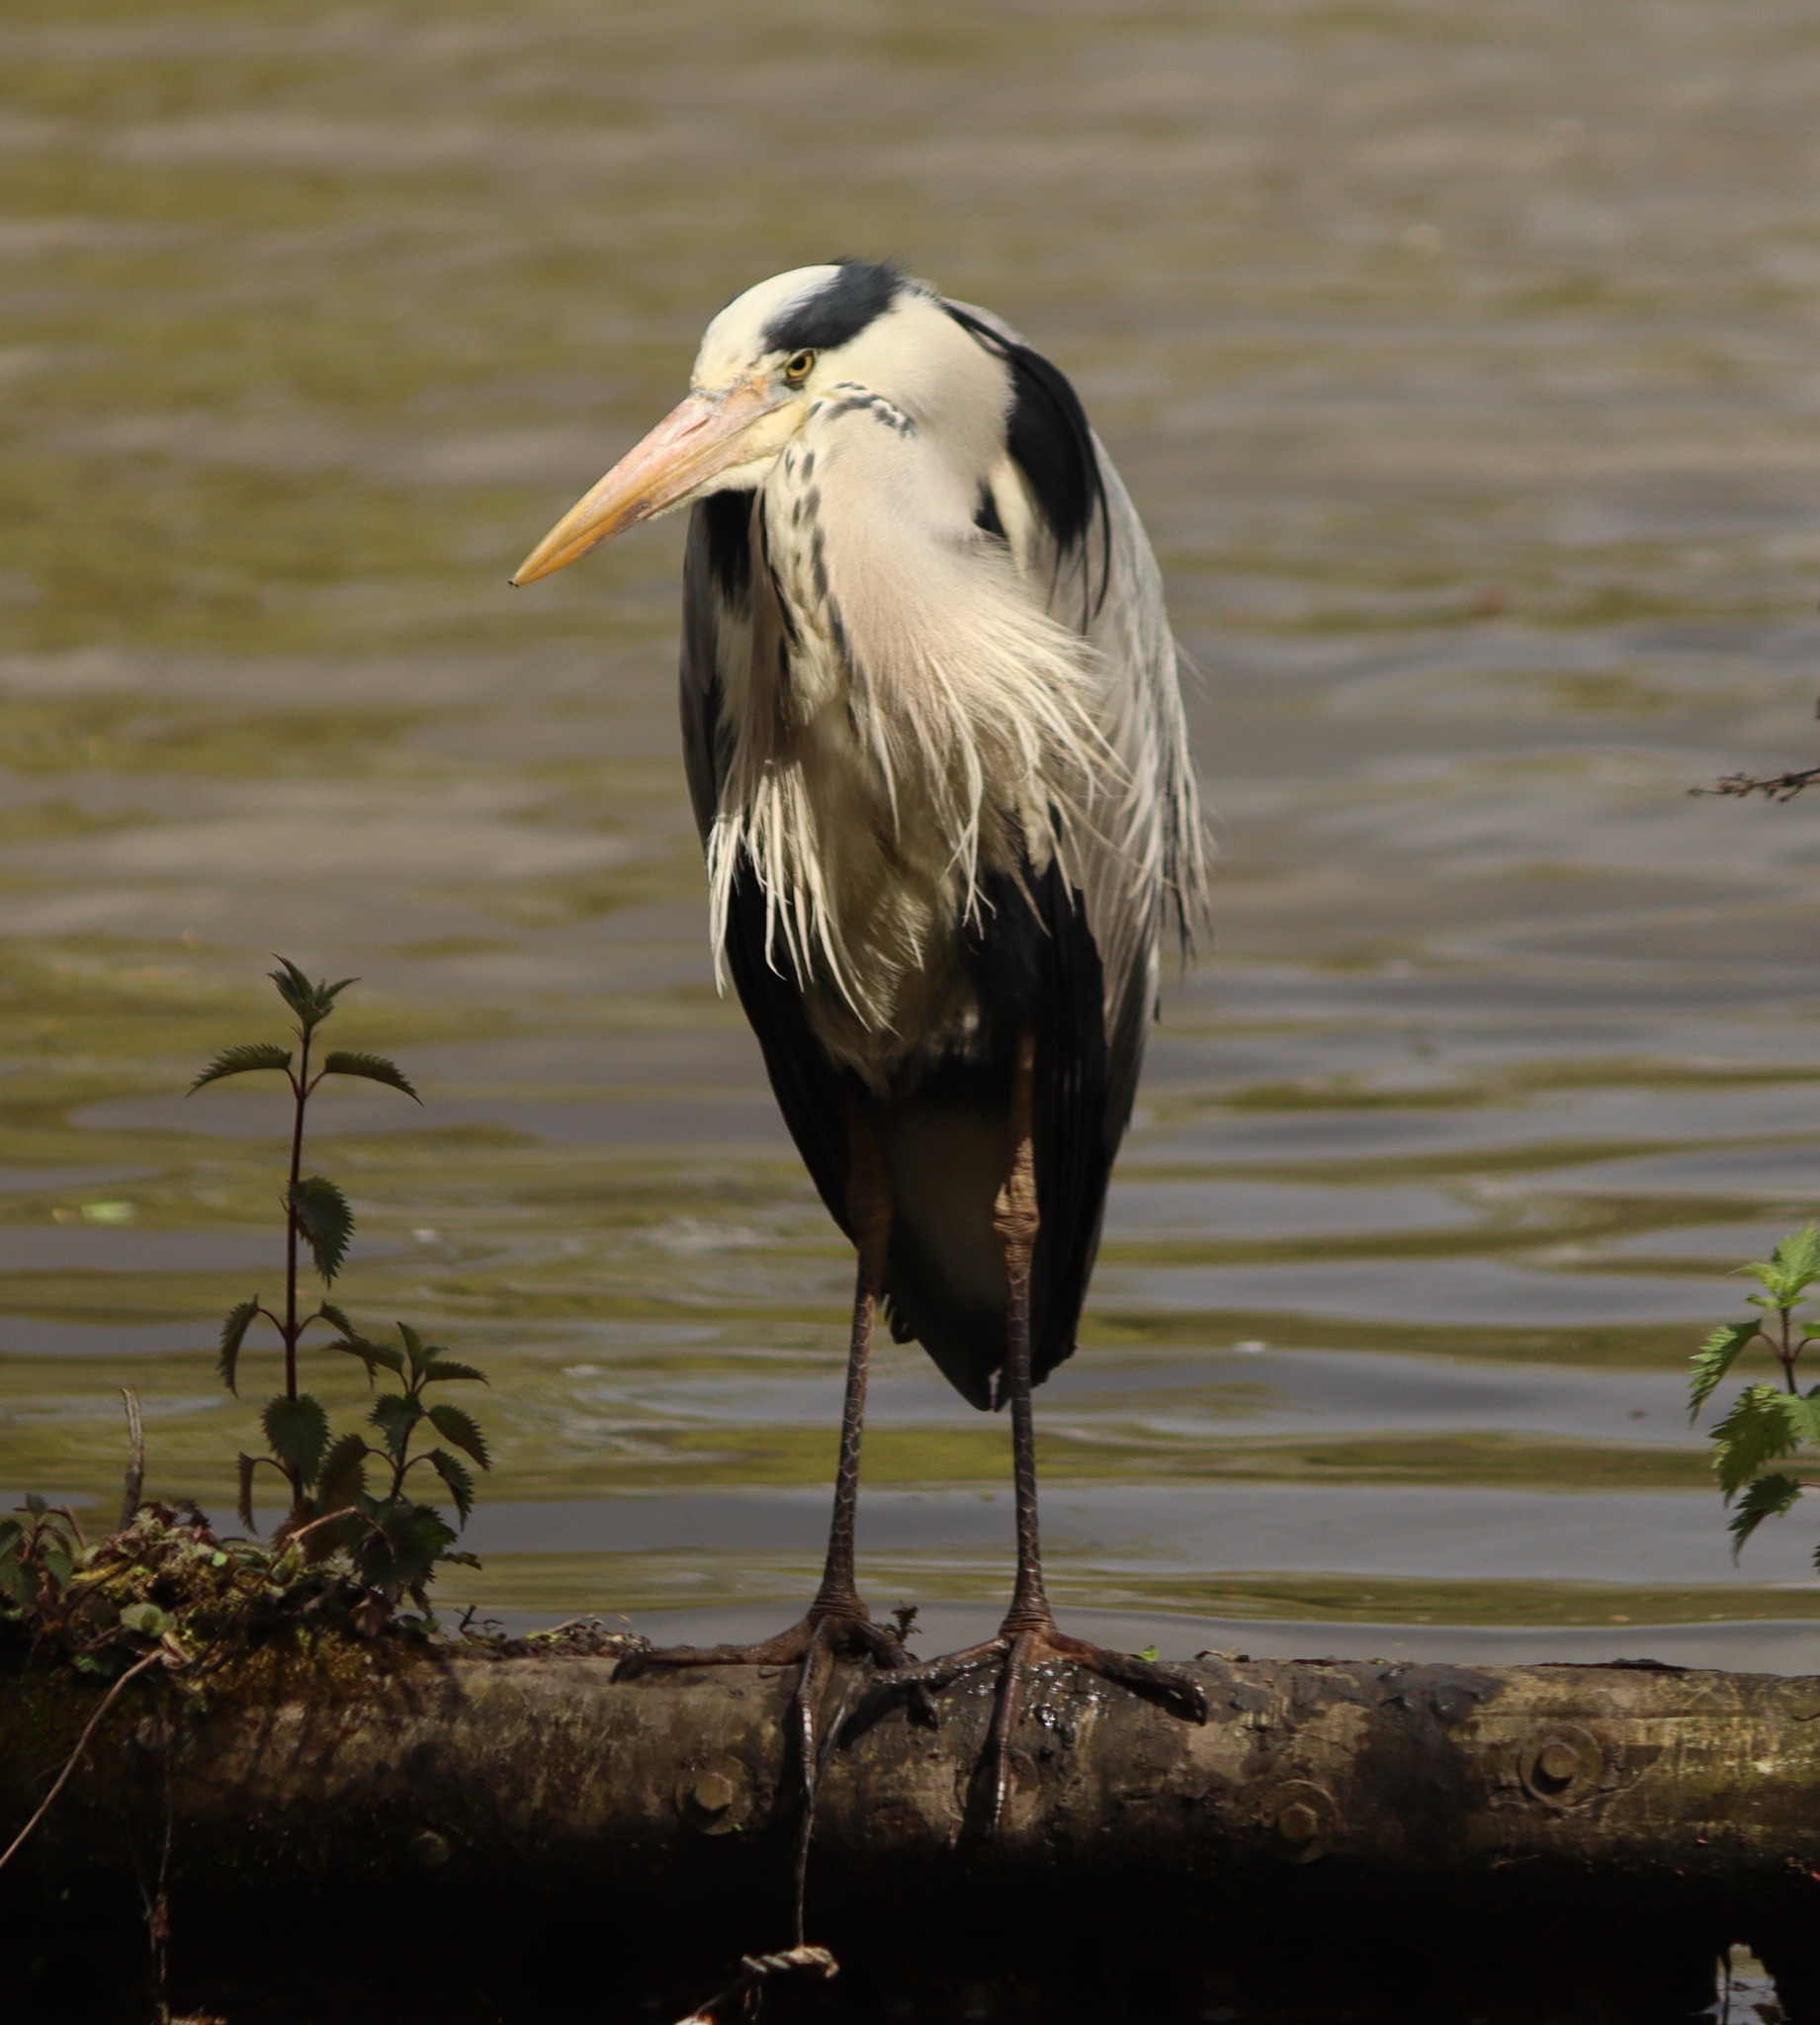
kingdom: Animalia
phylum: Chordata
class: Aves
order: Pelecaniformes
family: Ardeidae
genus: Ardea
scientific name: Ardea cinerea
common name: Grey heron
